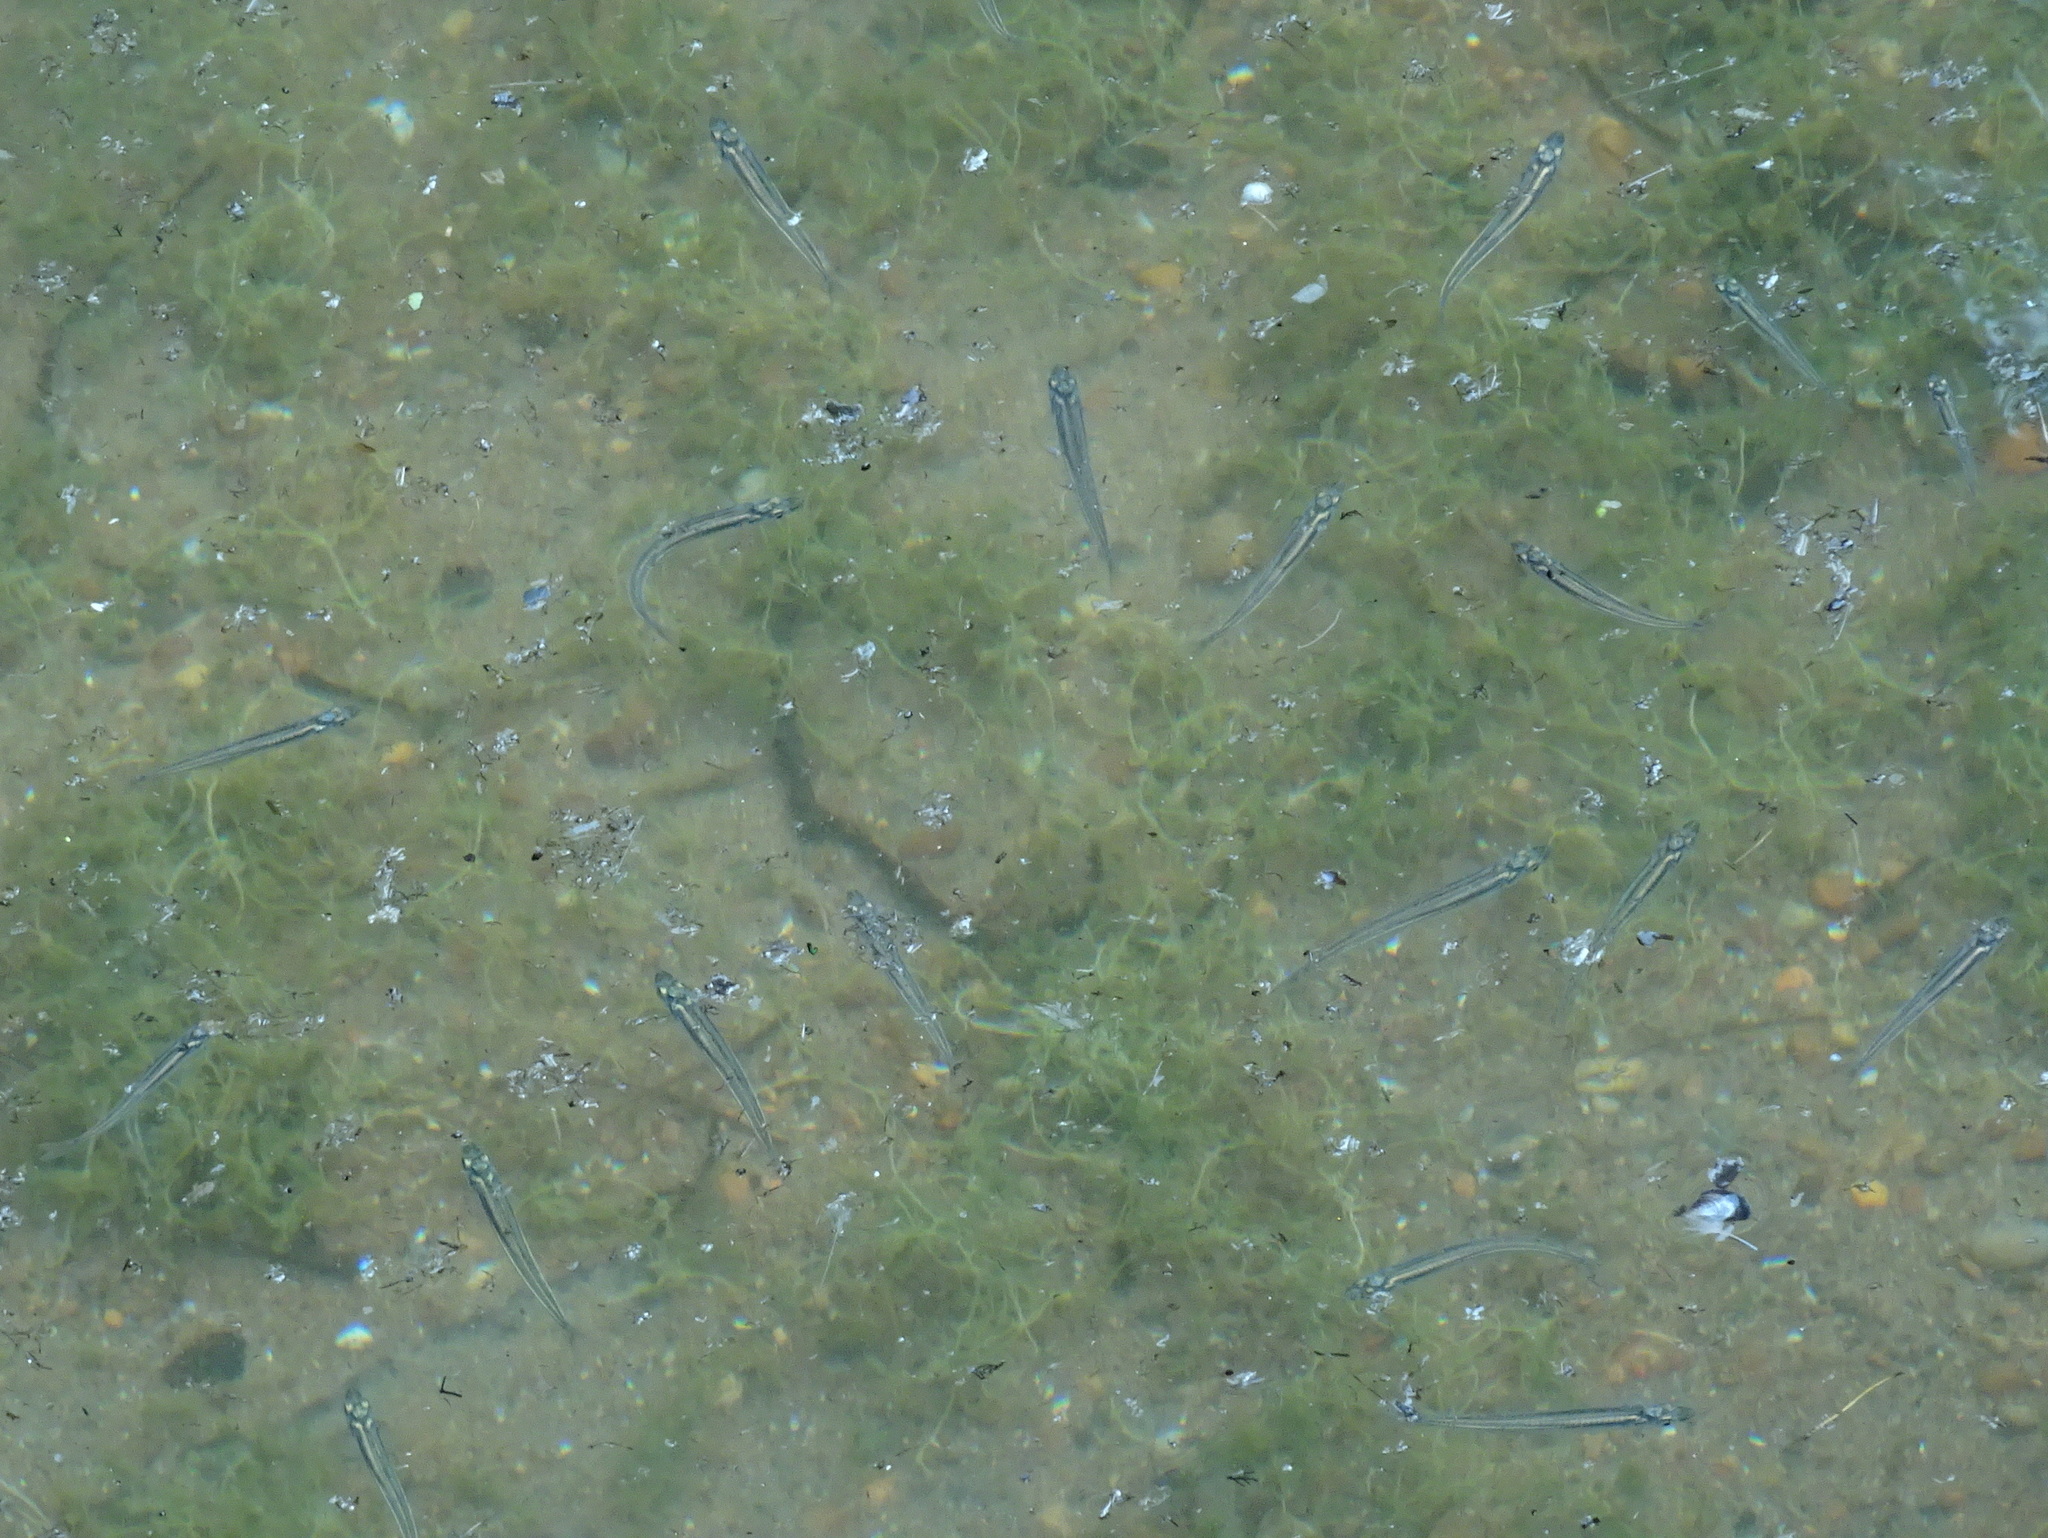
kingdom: Animalia
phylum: Chordata
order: Atheriniformes
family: Atherinopsidae
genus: Labidesthes
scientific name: Labidesthes sicculus
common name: Brook silverside
